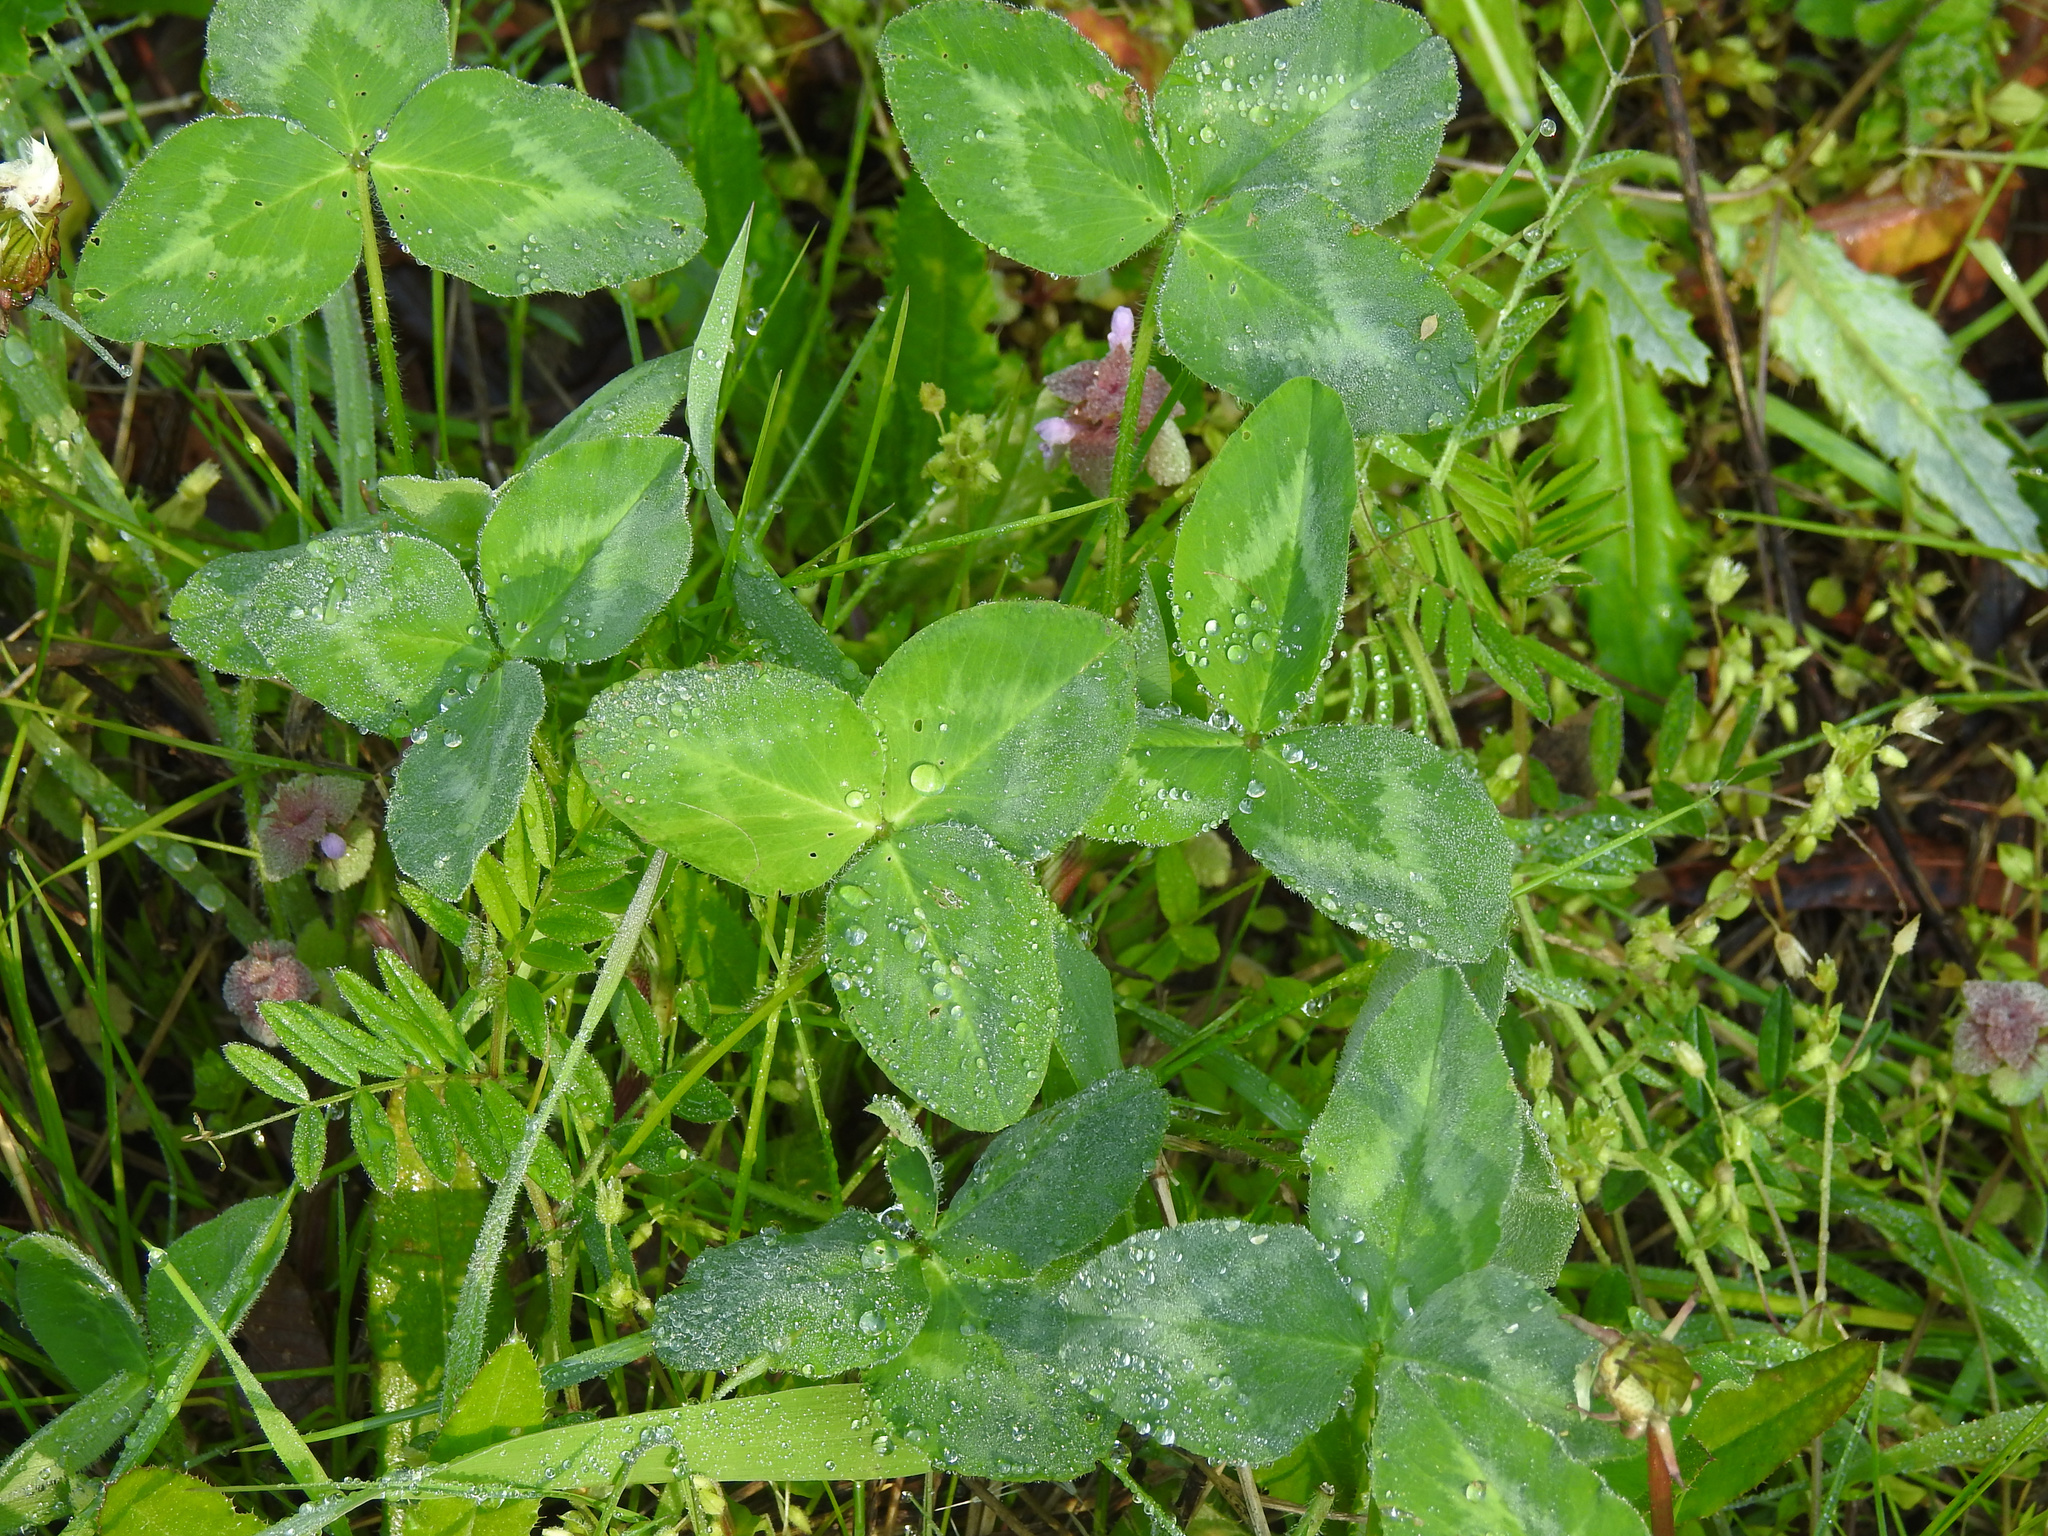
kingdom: Plantae
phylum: Tracheophyta
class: Magnoliopsida
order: Fabales
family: Fabaceae
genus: Trifolium
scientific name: Trifolium pratense
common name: Red clover
